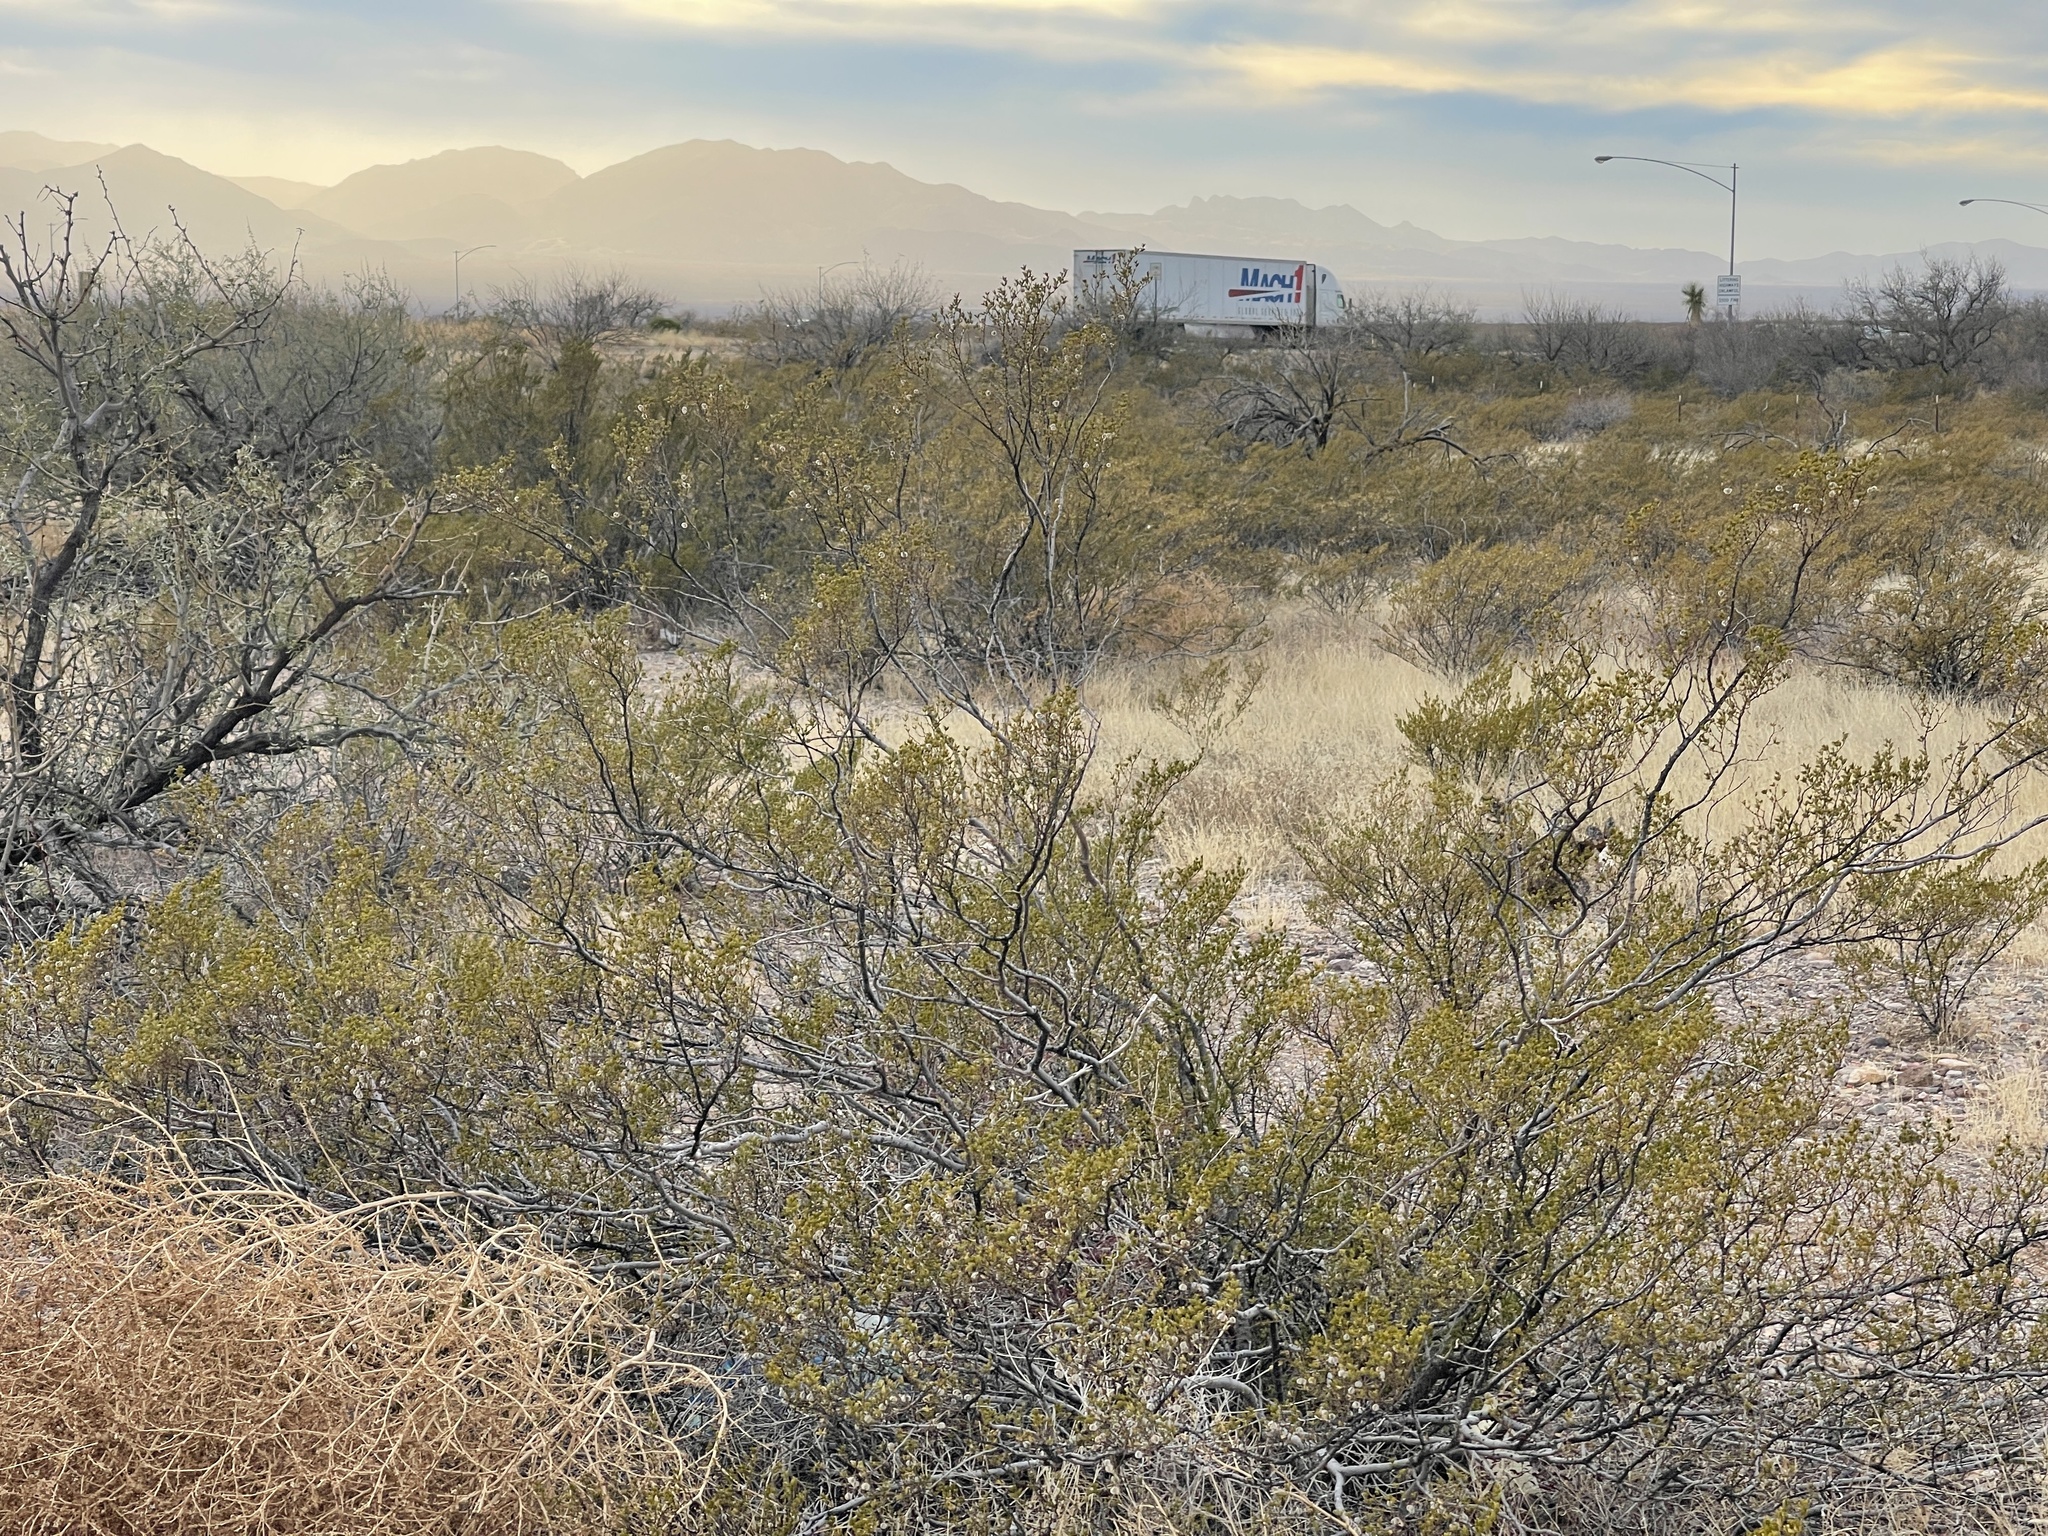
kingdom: Plantae
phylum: Tracheophyta
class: Magnoliopsida
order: Zygophyllales
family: Zygophyllaceae
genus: Larrea
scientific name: Larrea tridentata
